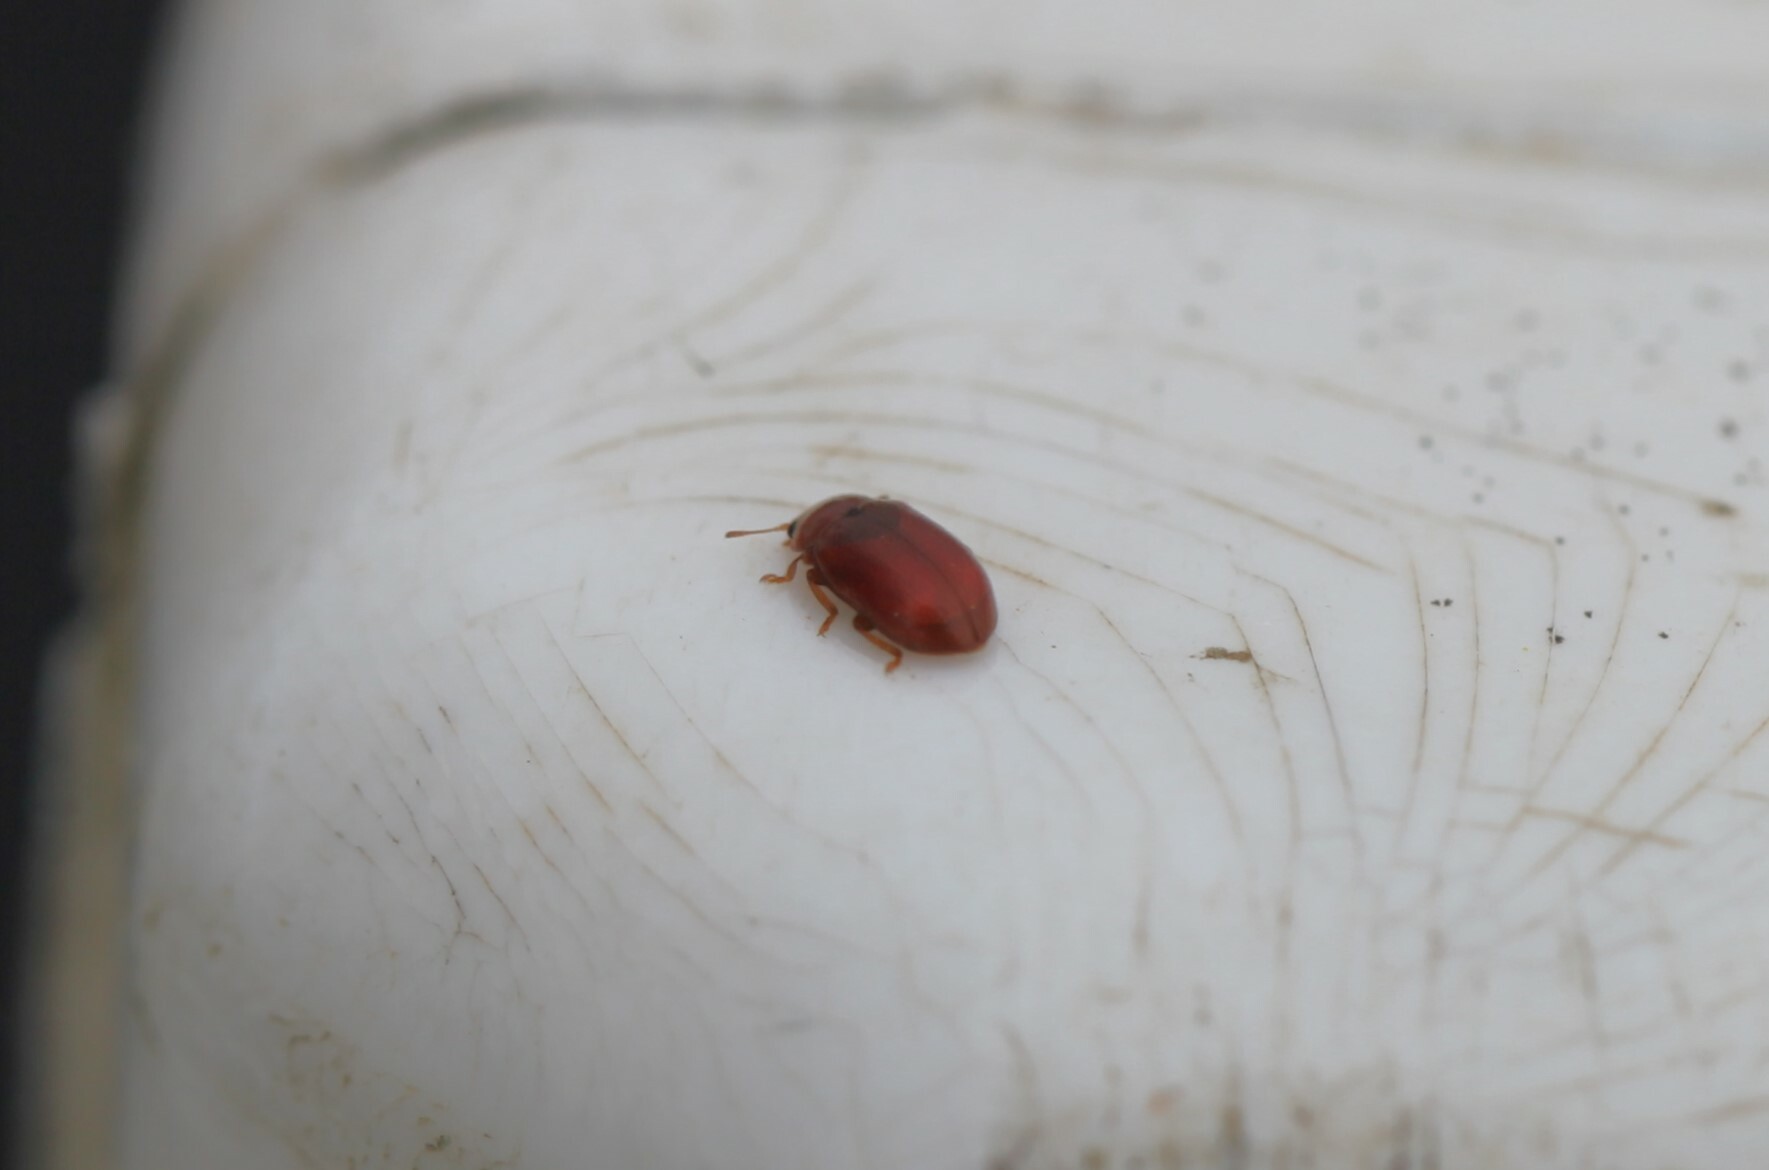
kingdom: Animalia
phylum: Arthropoda
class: Insecta
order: Coleoptera
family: Coccinellidae
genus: Coccidula
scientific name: Coccidula rufa
